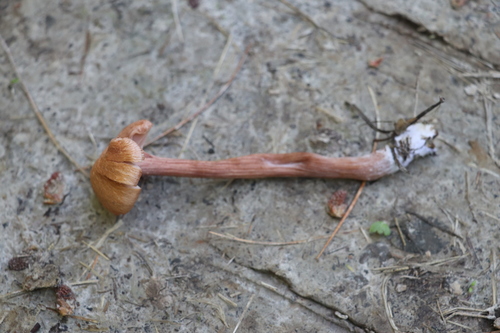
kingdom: Fungi
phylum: Basidiomycota
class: Agaricomycetes
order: Agaricales
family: Hydnangiaceae
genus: Laccaria
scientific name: Laccaria proxima
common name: Scurfy deceiver
